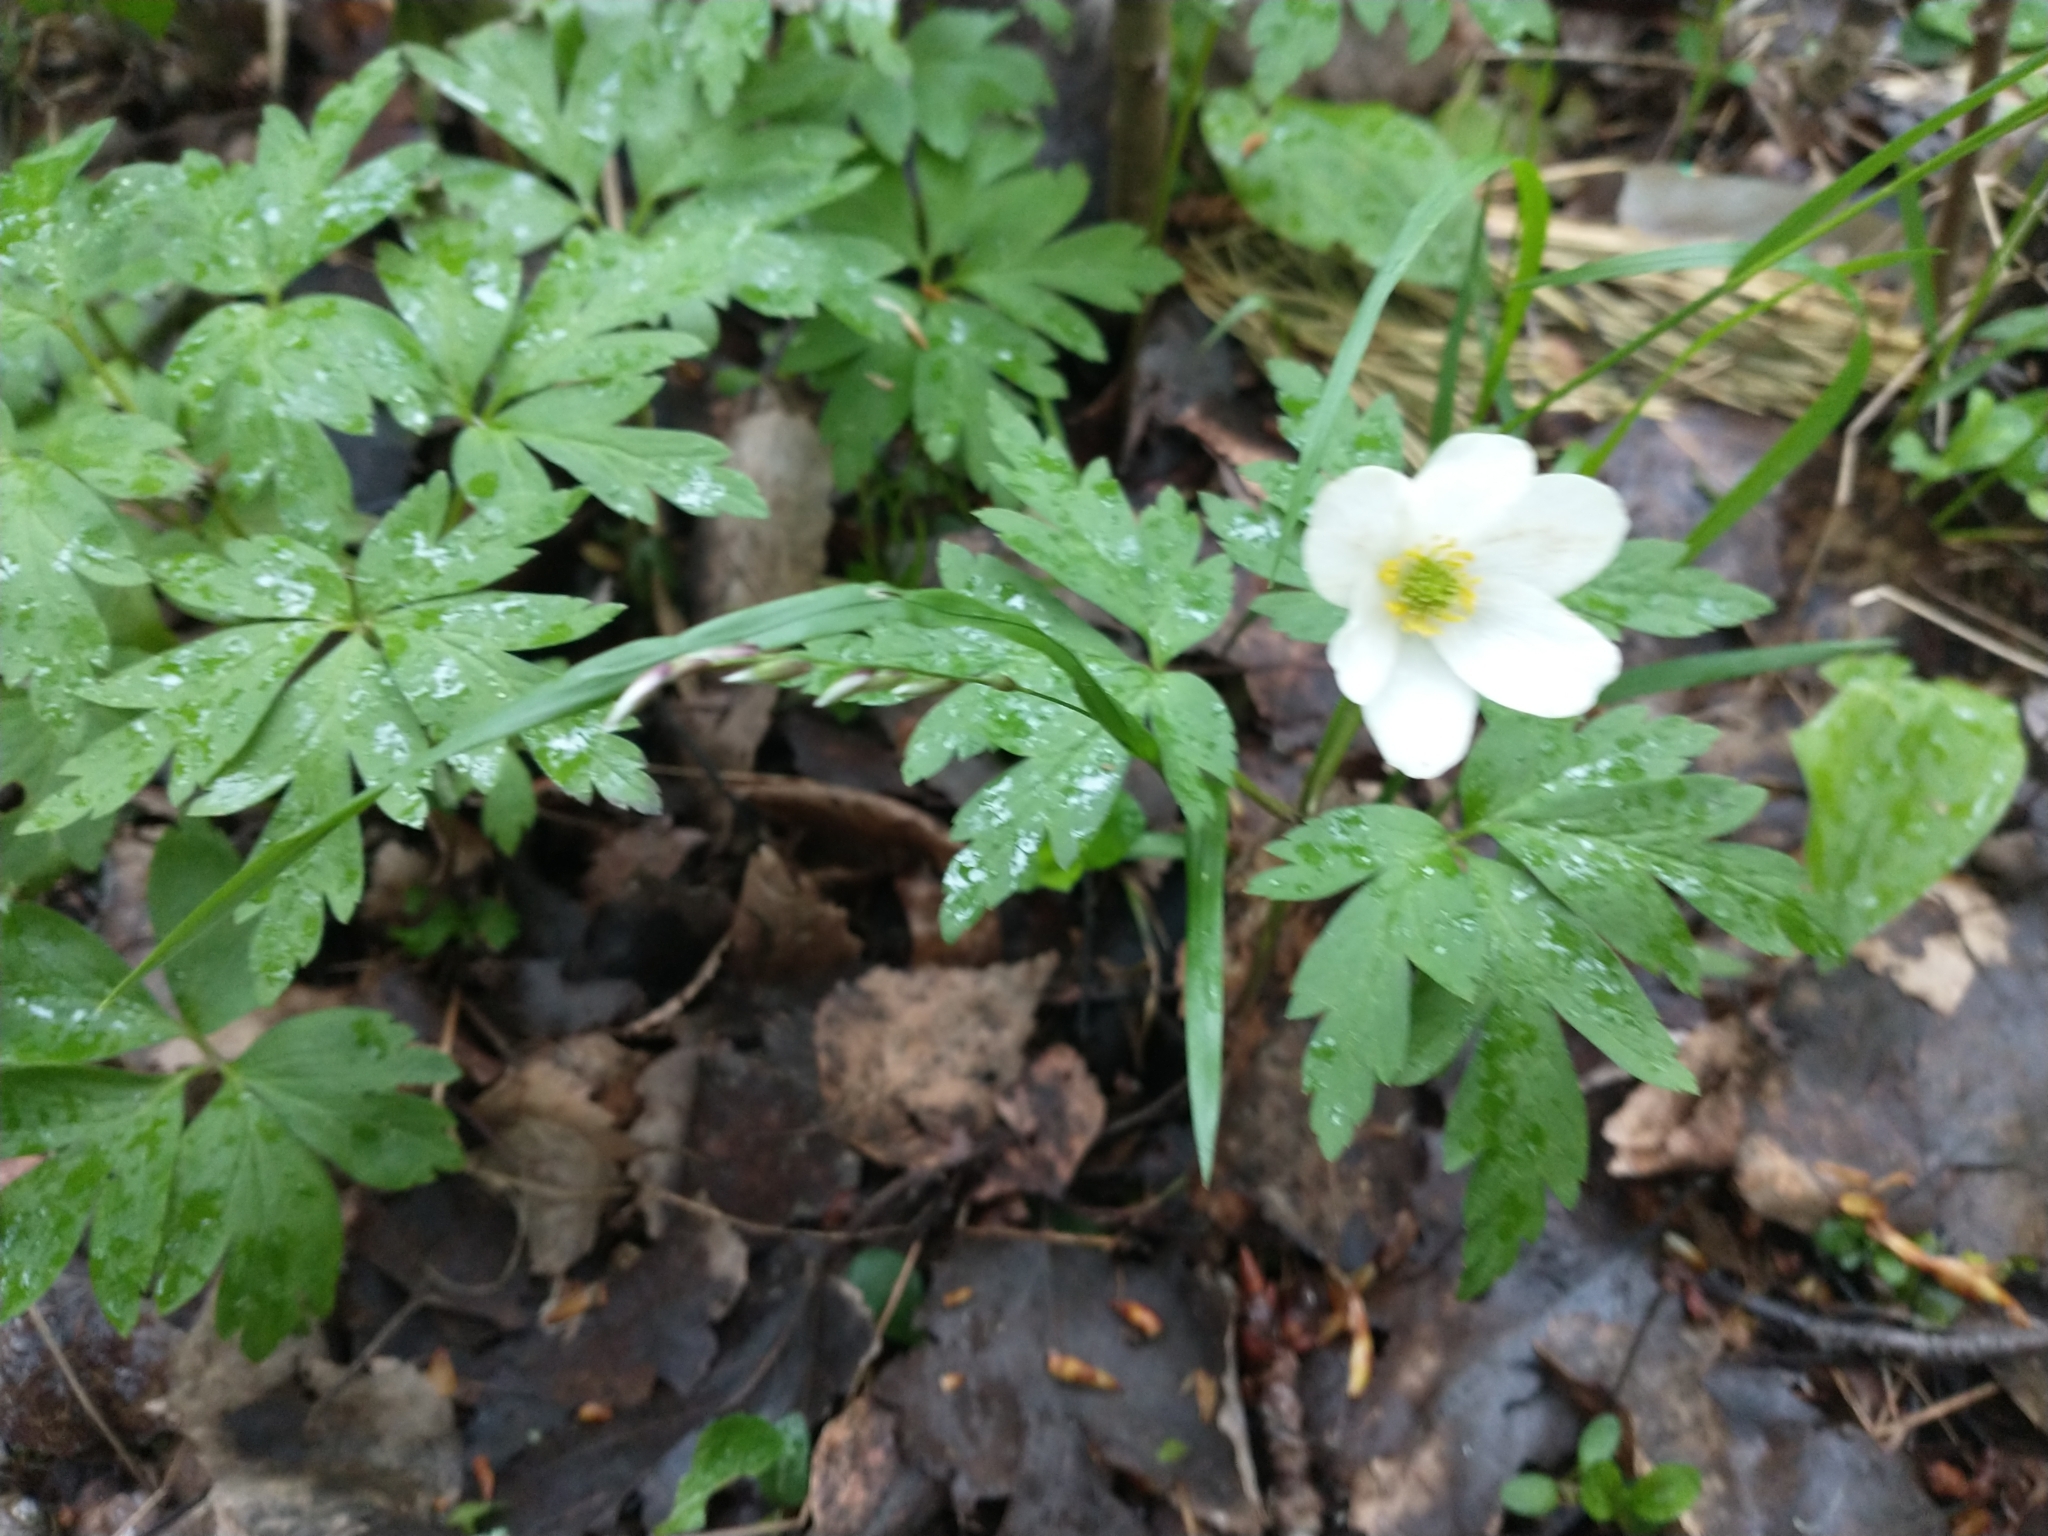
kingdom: Plantae
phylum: Tracheophyta
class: Magnoliopsida
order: Ranunculales
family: Ranunculaceae
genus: Anemone
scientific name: Anemone nemorosa
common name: Wood anemone
